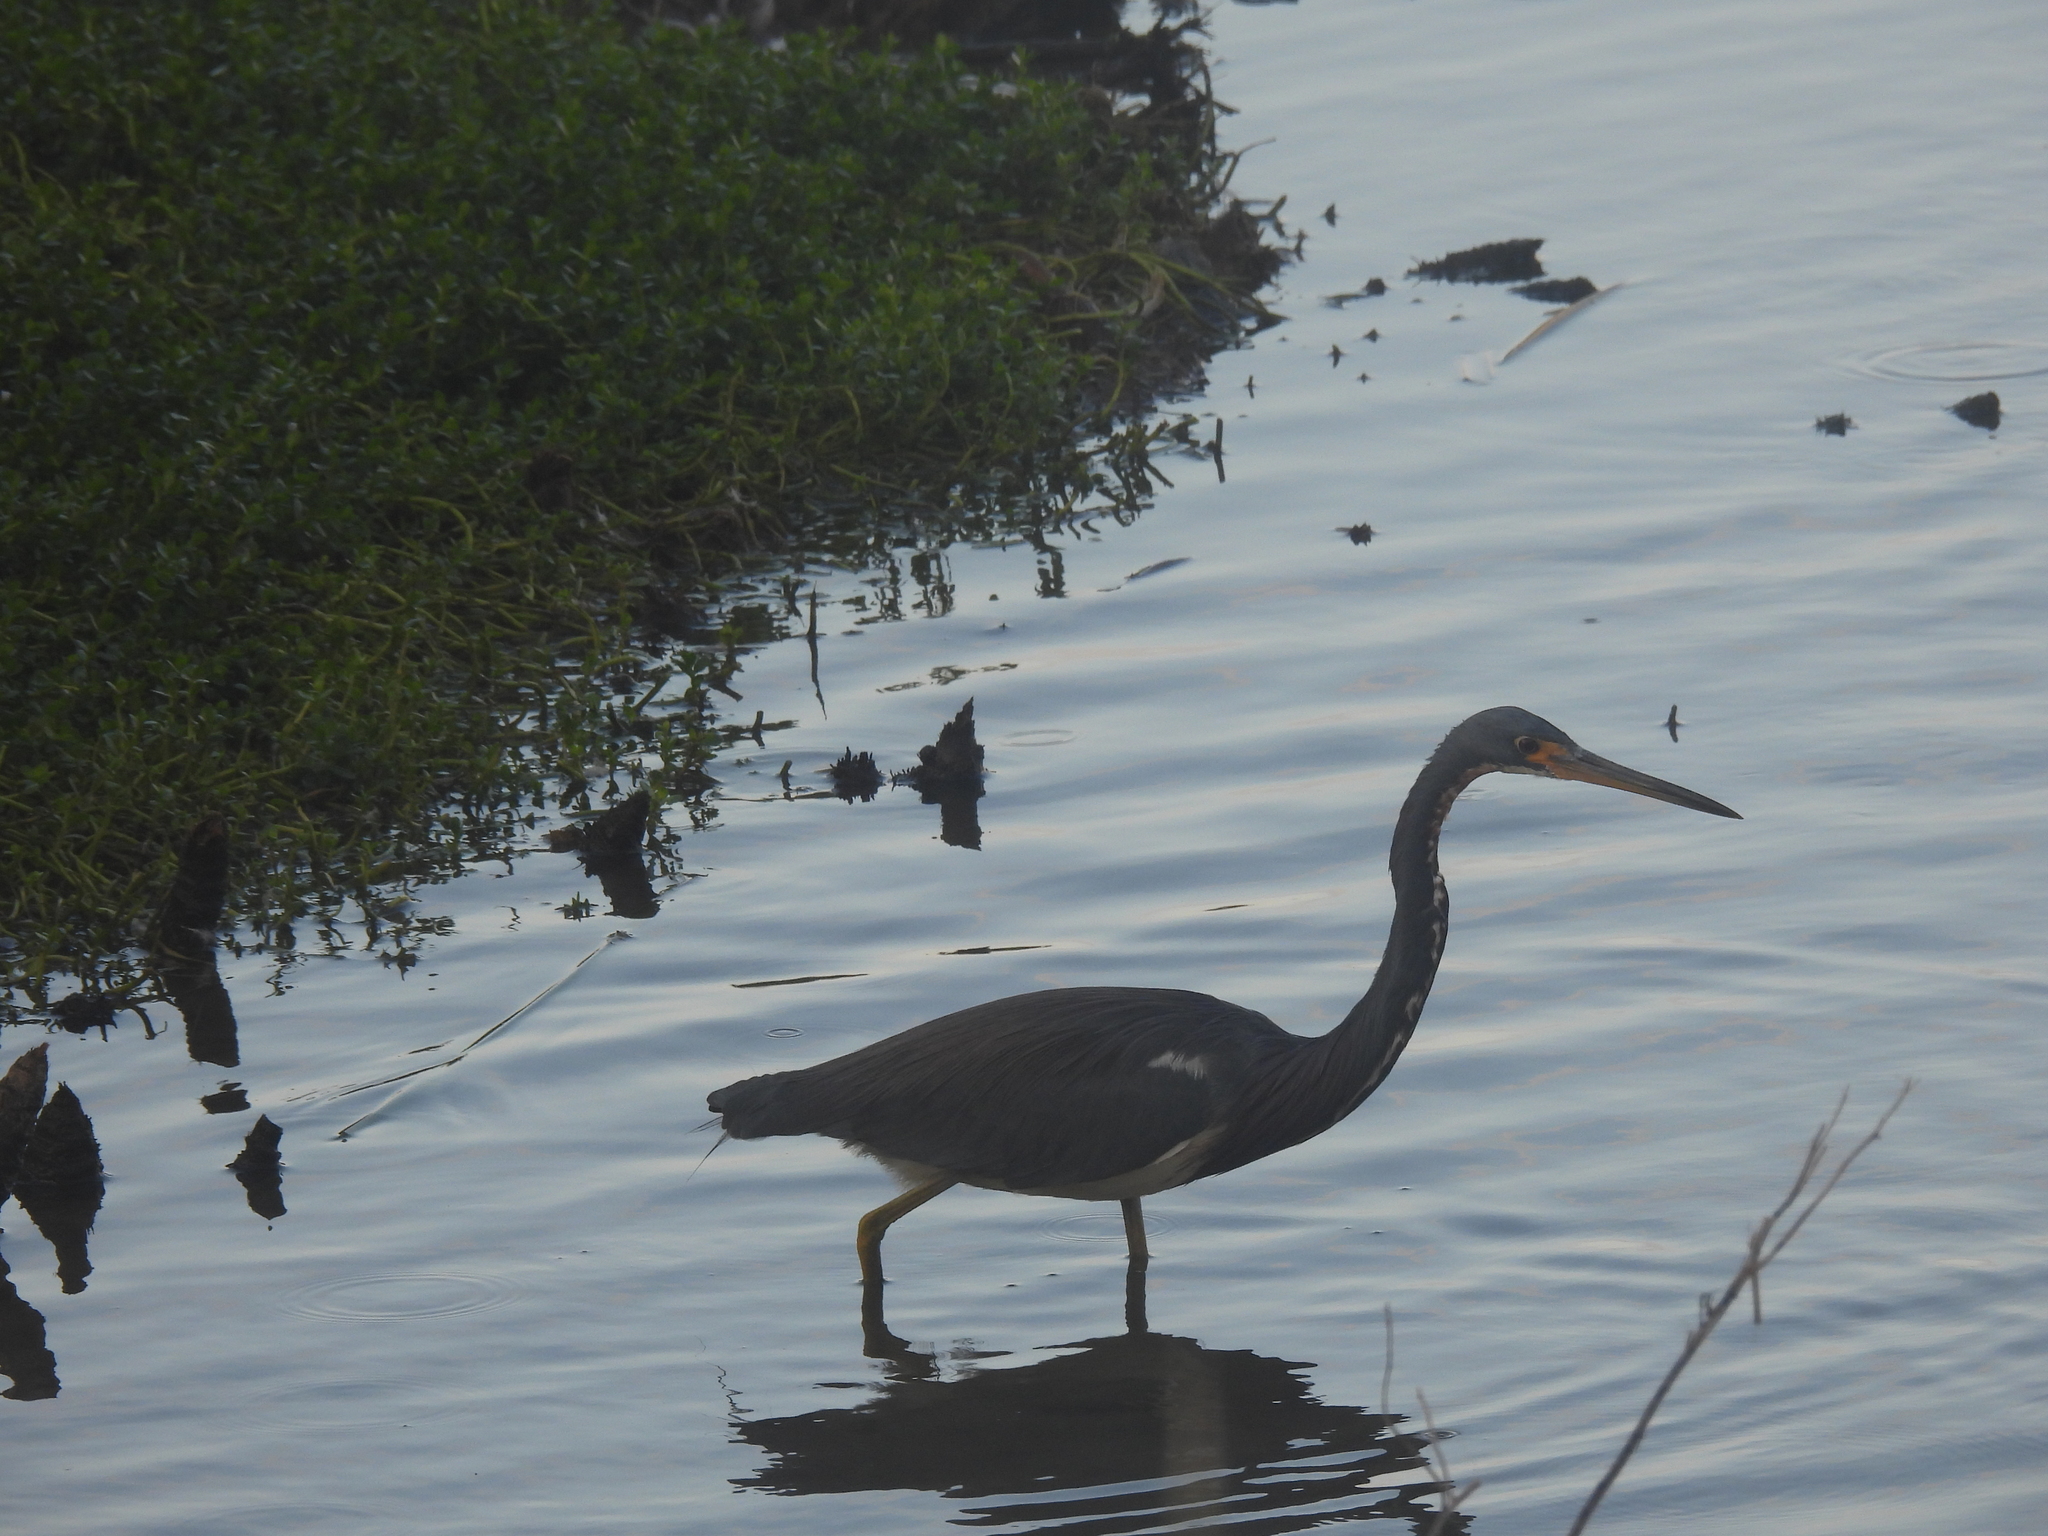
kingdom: Animalia
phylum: Chordata
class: Aves
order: Pelecaniformes
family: Ardeidae
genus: Egretta
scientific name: Egretta tricolor
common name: Tricolored heron
